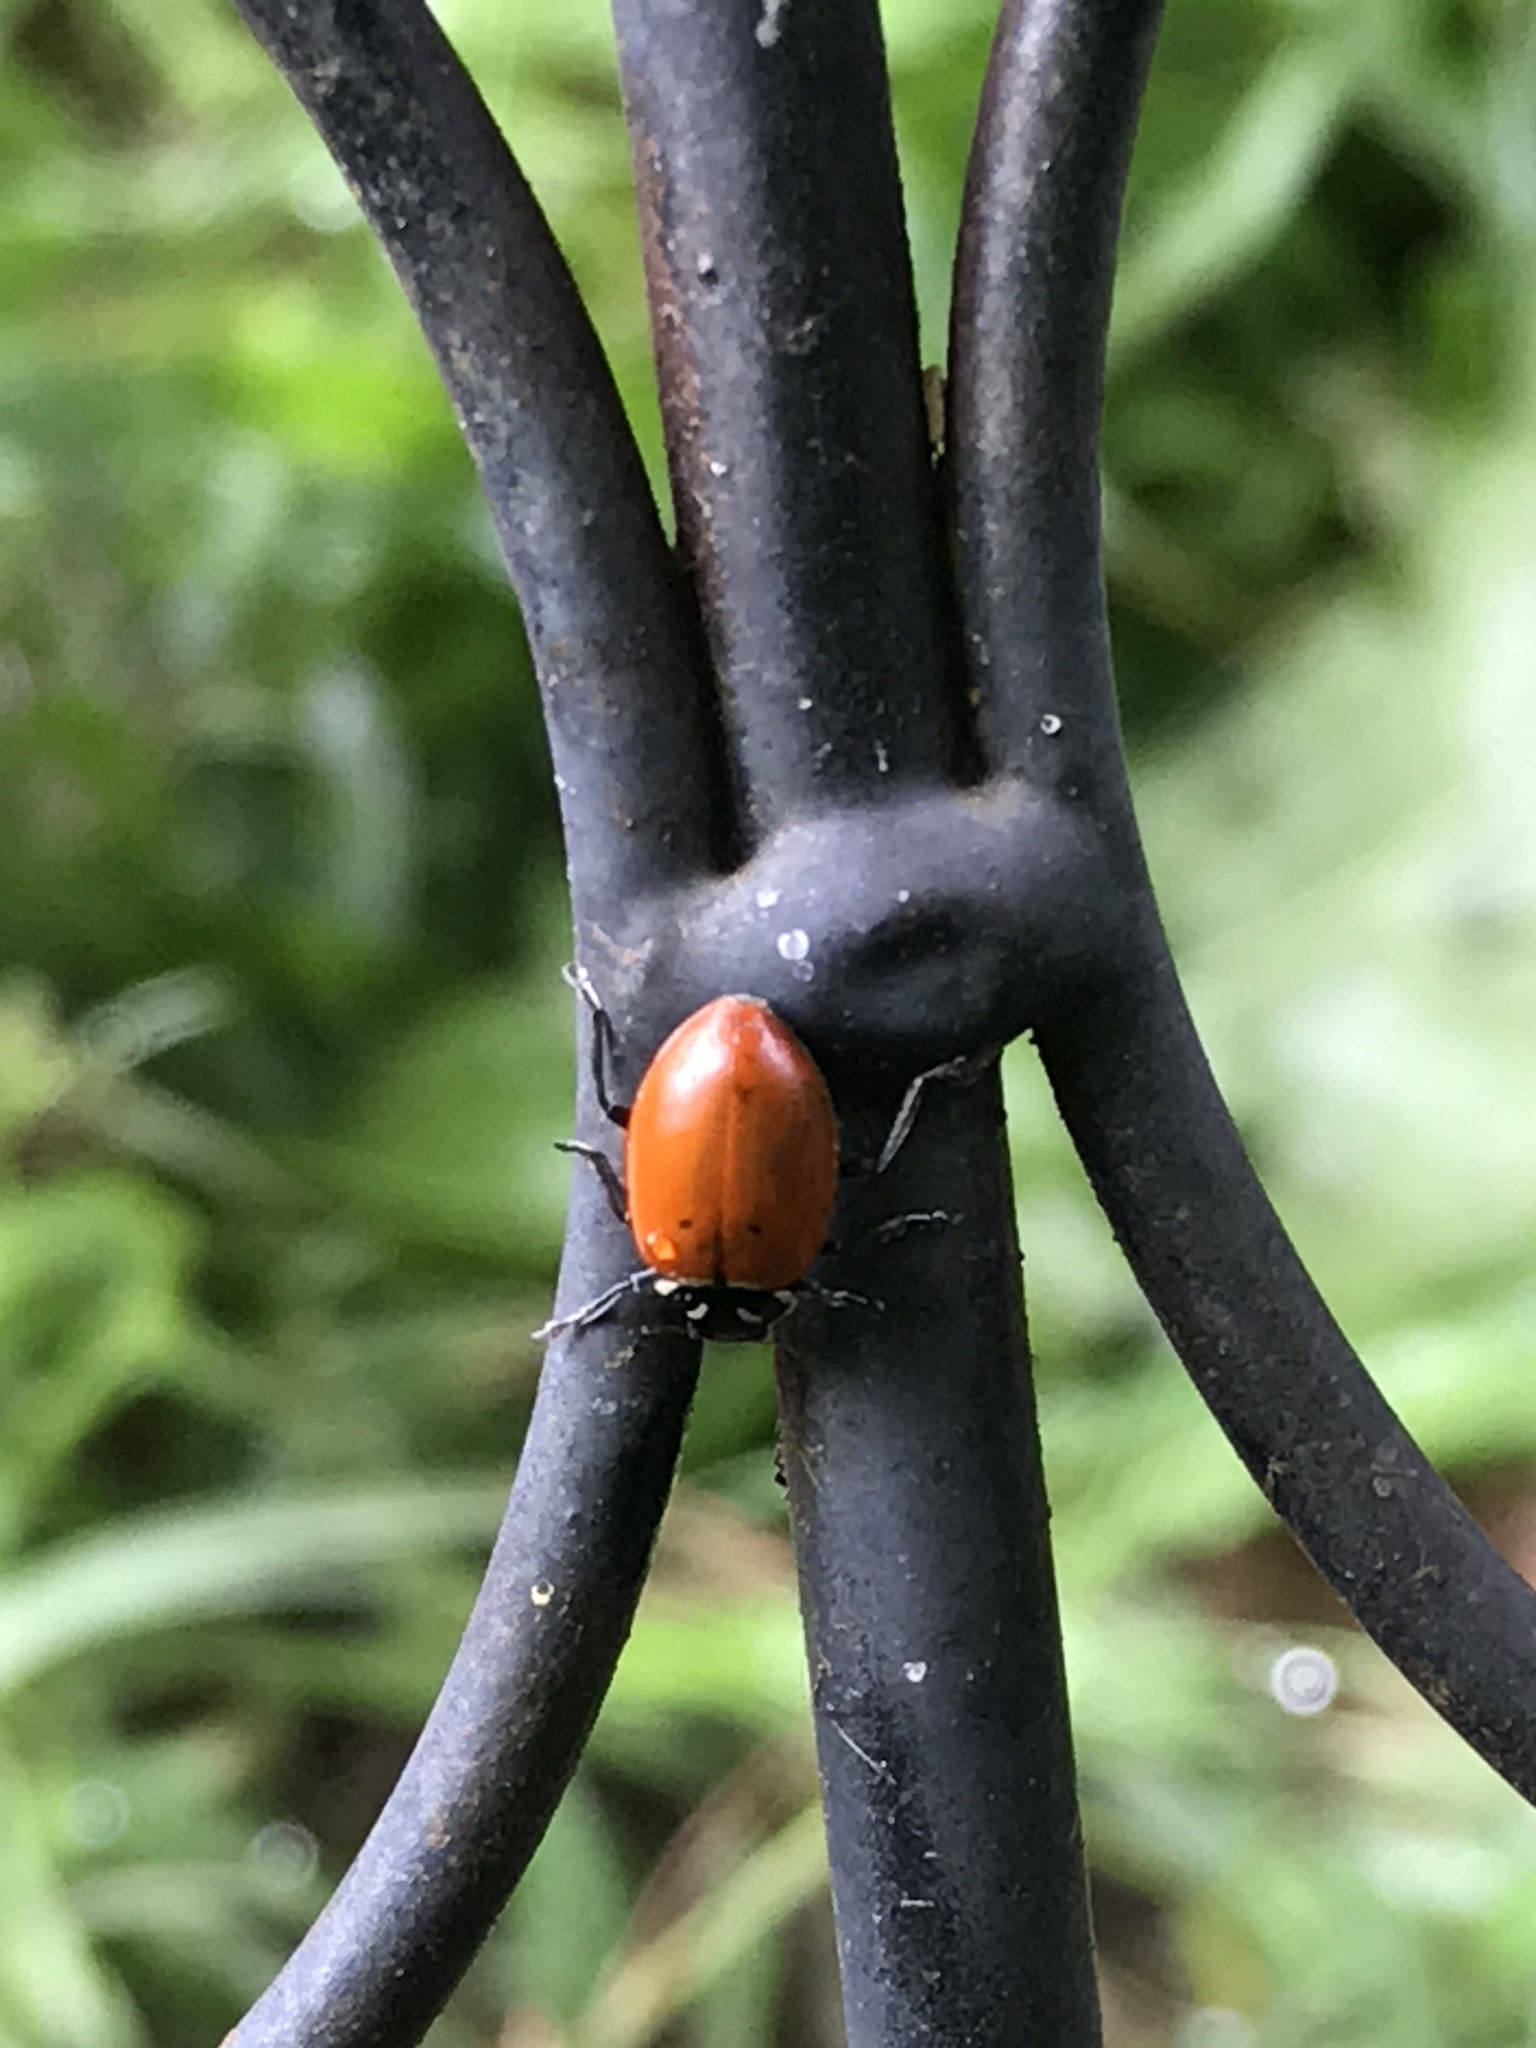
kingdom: Animalia
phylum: Arthropoda
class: Insecta
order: Coleoptera
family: Coccinellidae
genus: Hippodamia
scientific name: Hippodamia convergens
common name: Convergent lady beetle
